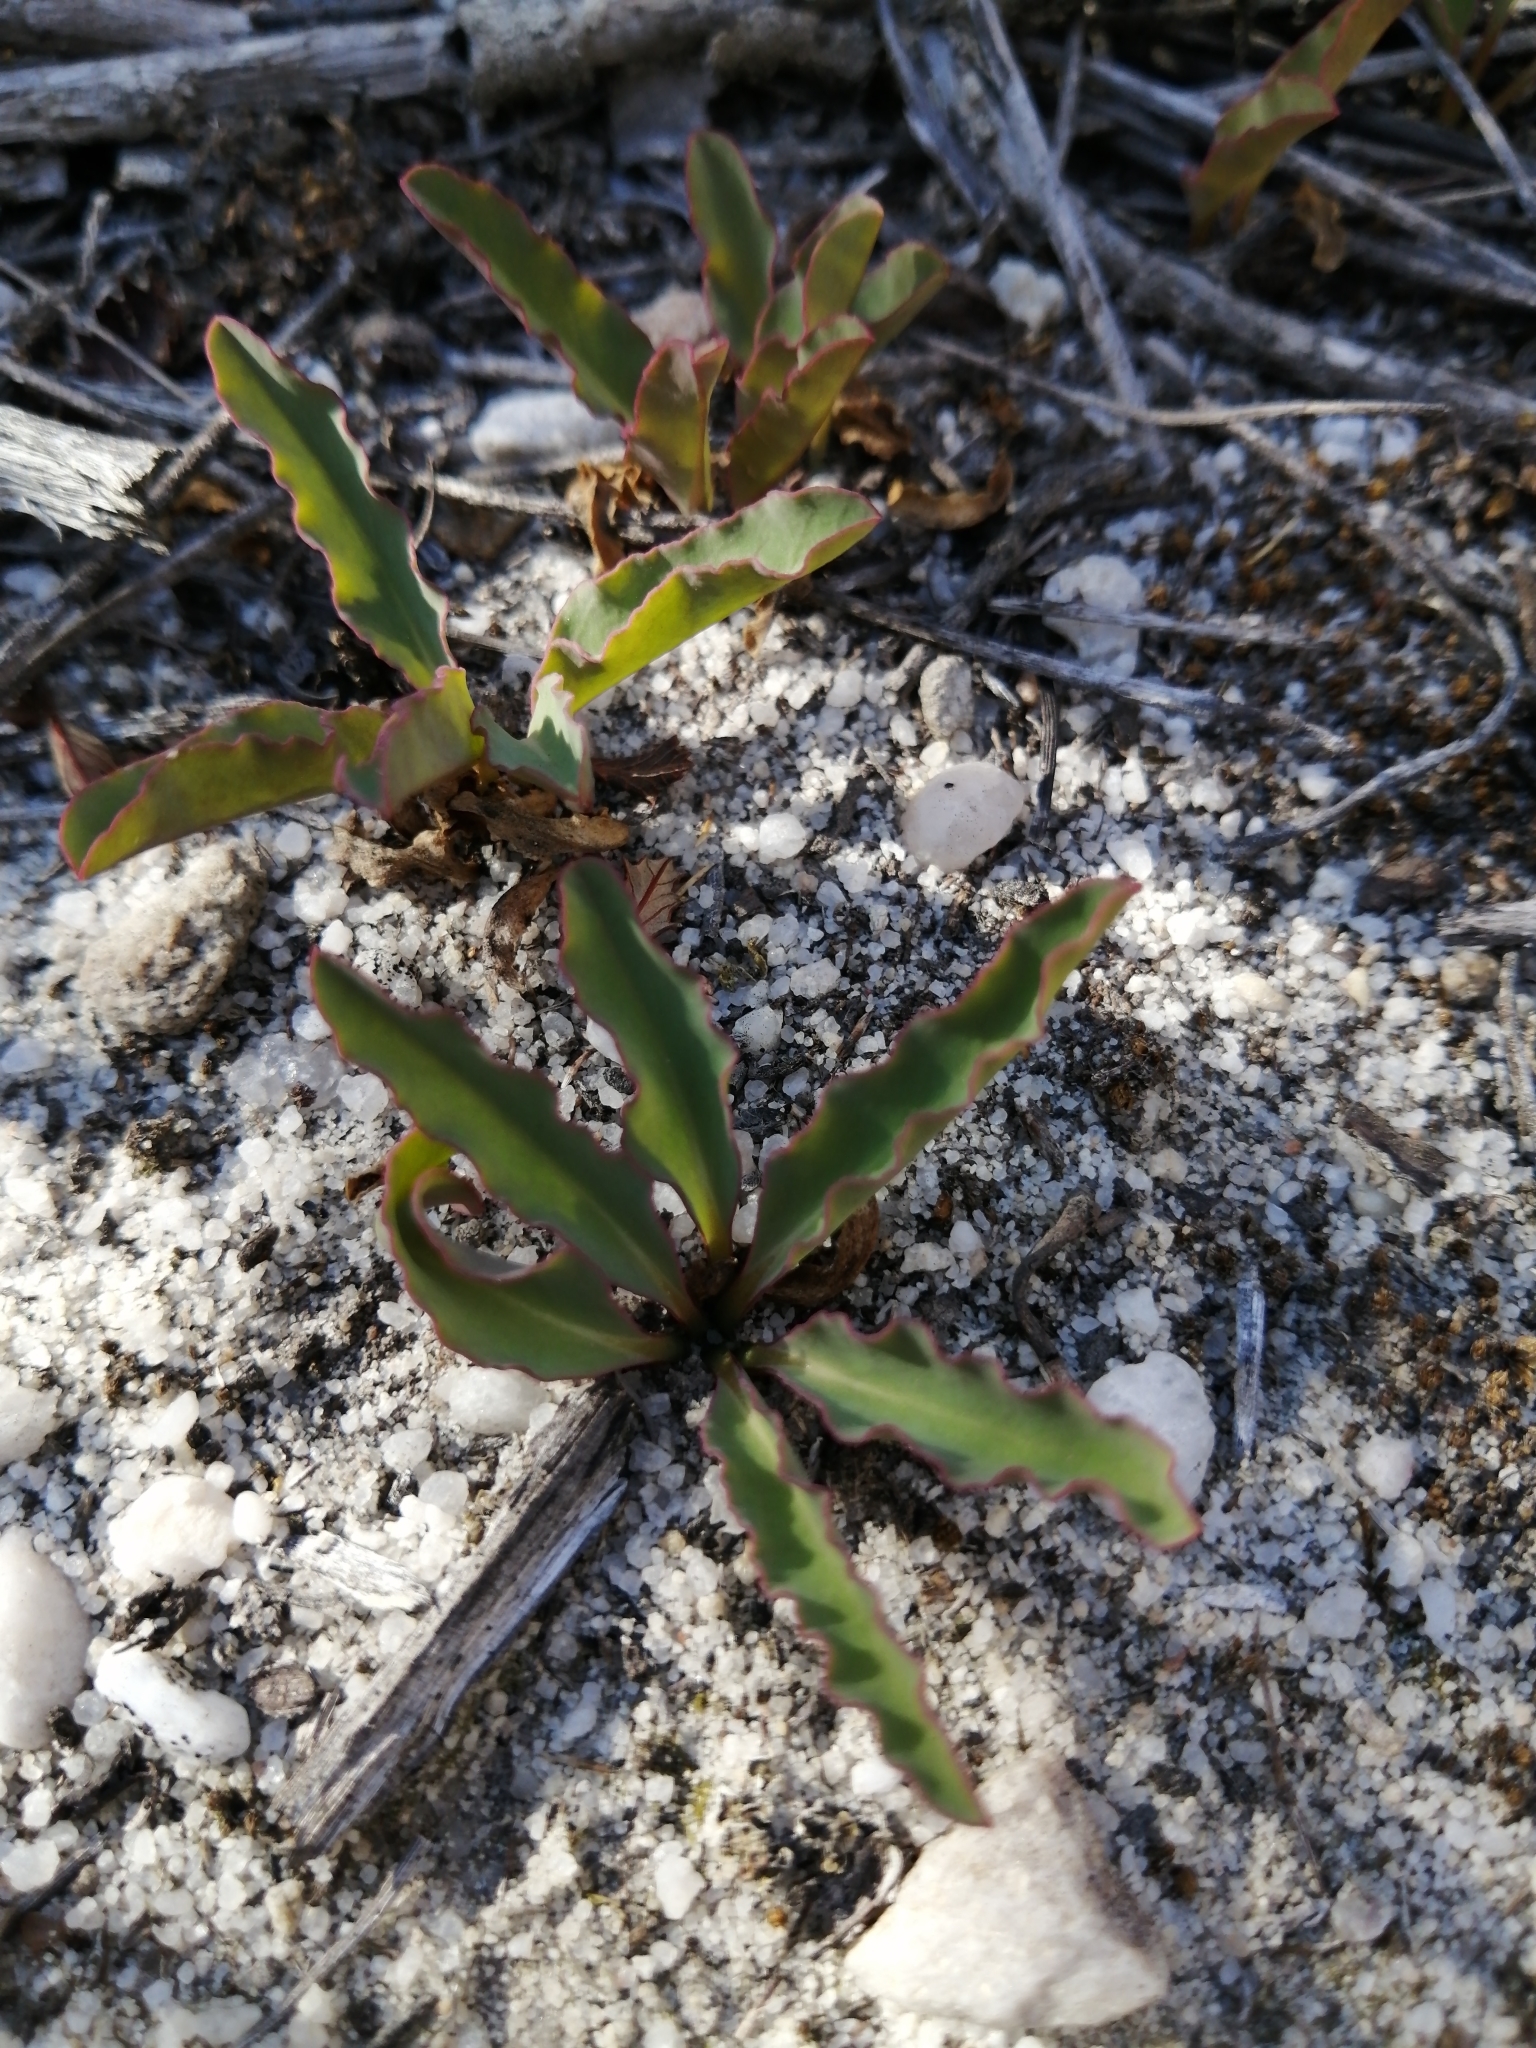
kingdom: Plantae
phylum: Tracheophyta
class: Magnoliopsida
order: Malpighiales
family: Euphorbiaceae
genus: Euphorbia
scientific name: Euphorbia tuberosa
